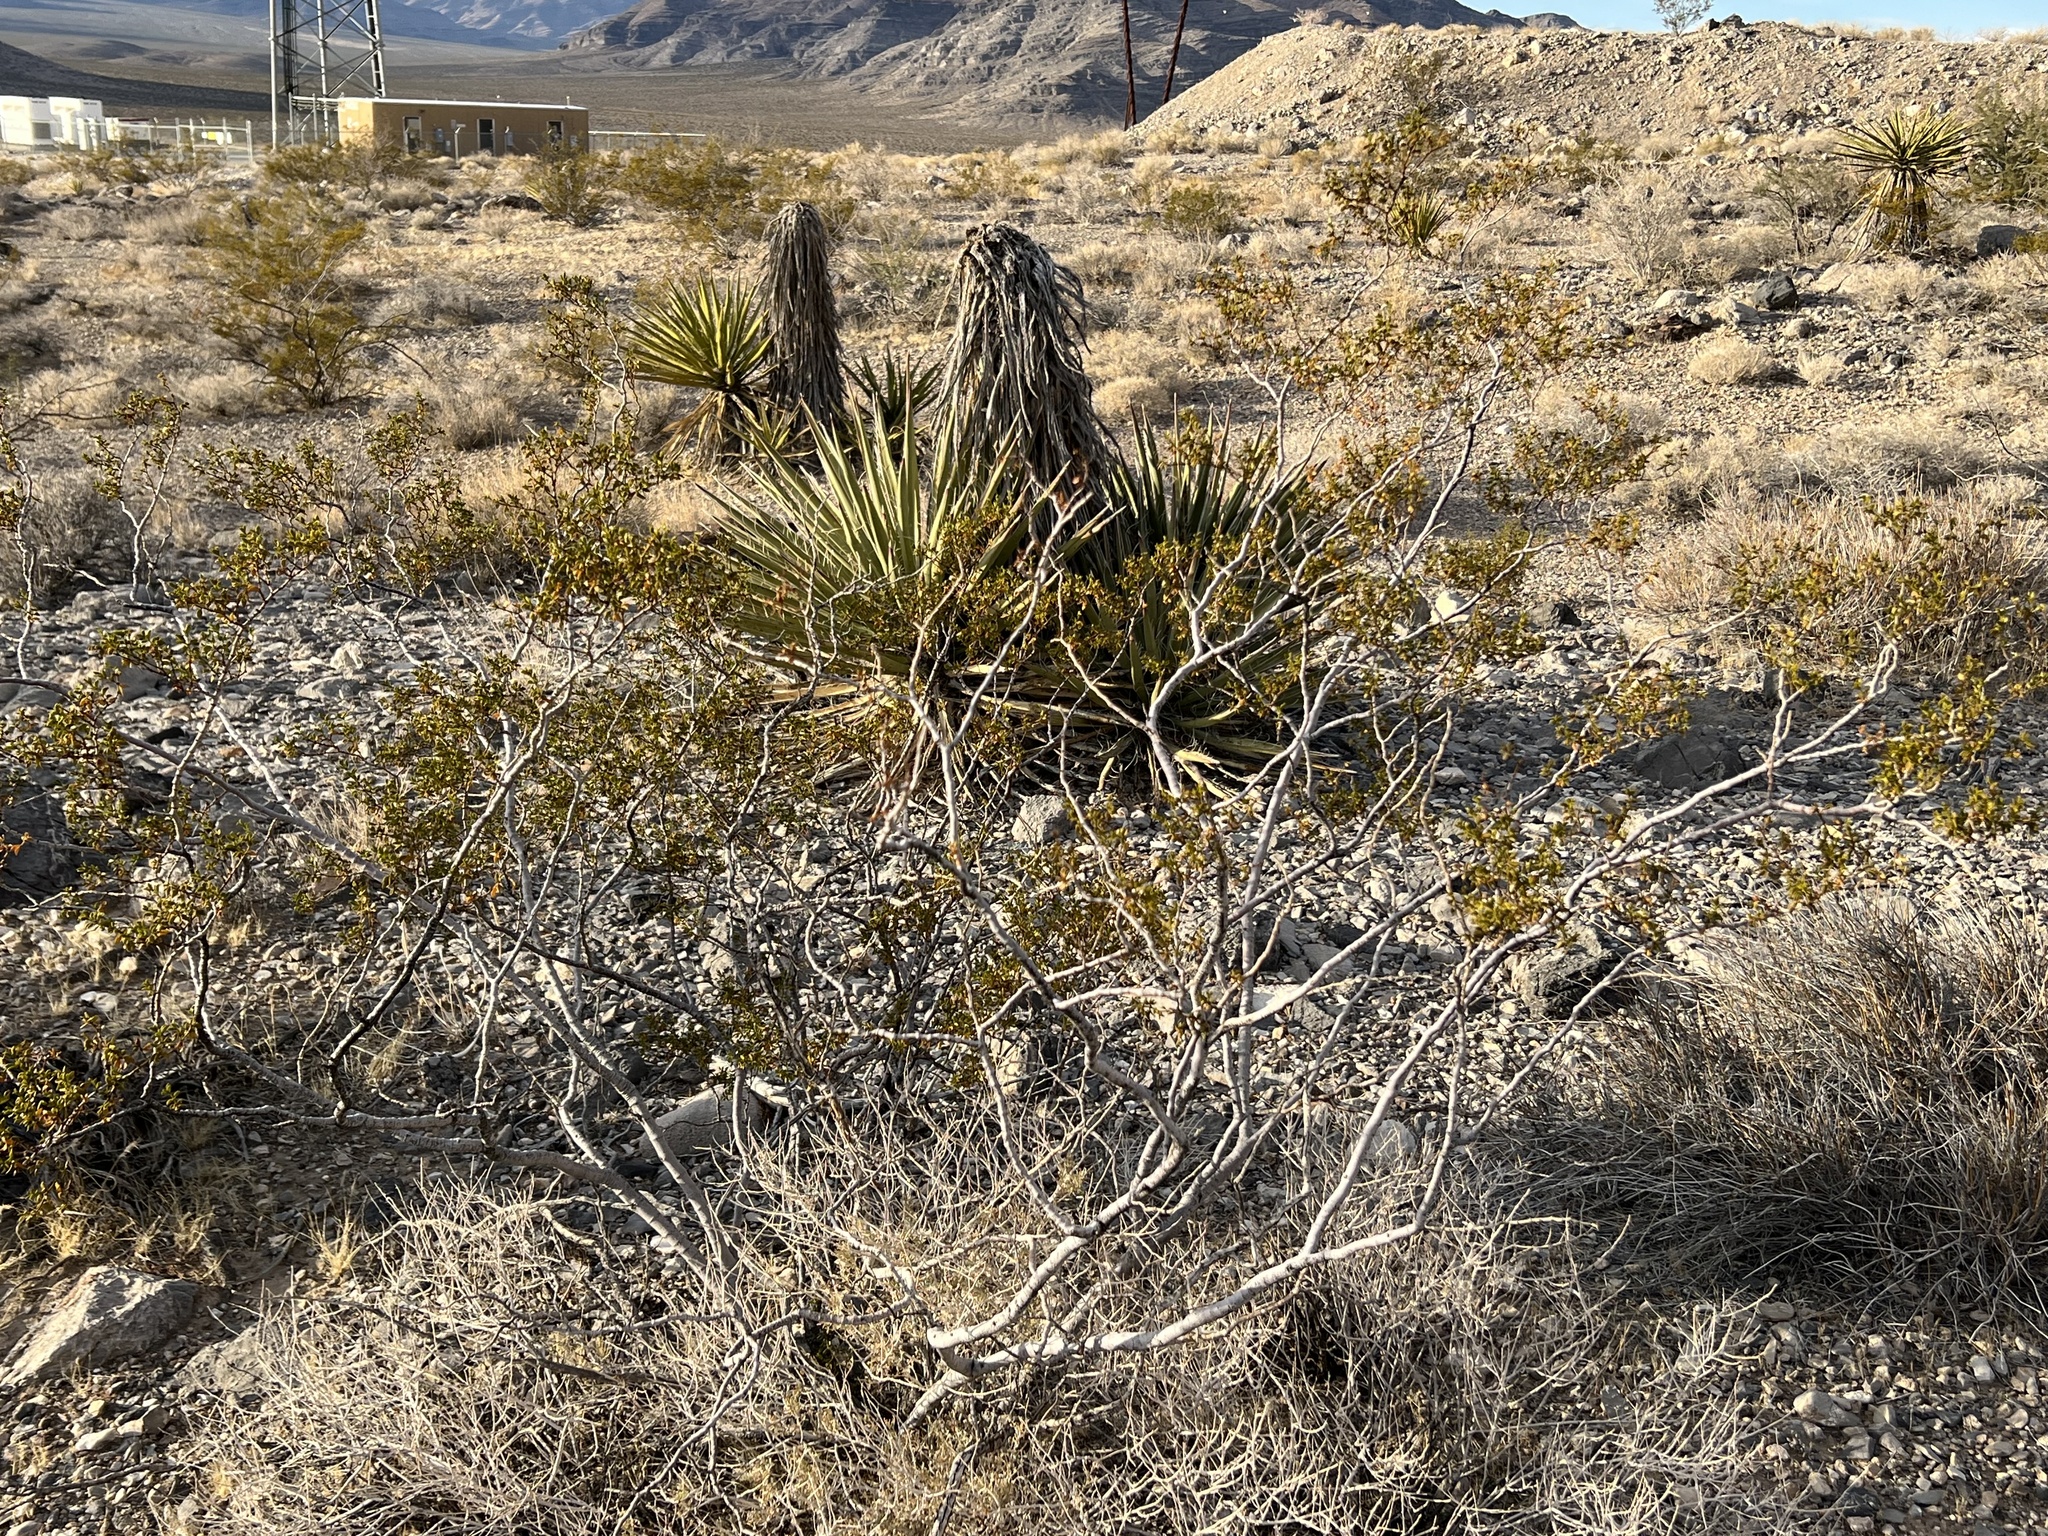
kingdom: Plantae
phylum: Tracheophyta
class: Magnoliopsida
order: Zygophyllales
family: Zygophyllaceae
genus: Larrea
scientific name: Larrea tridentata
